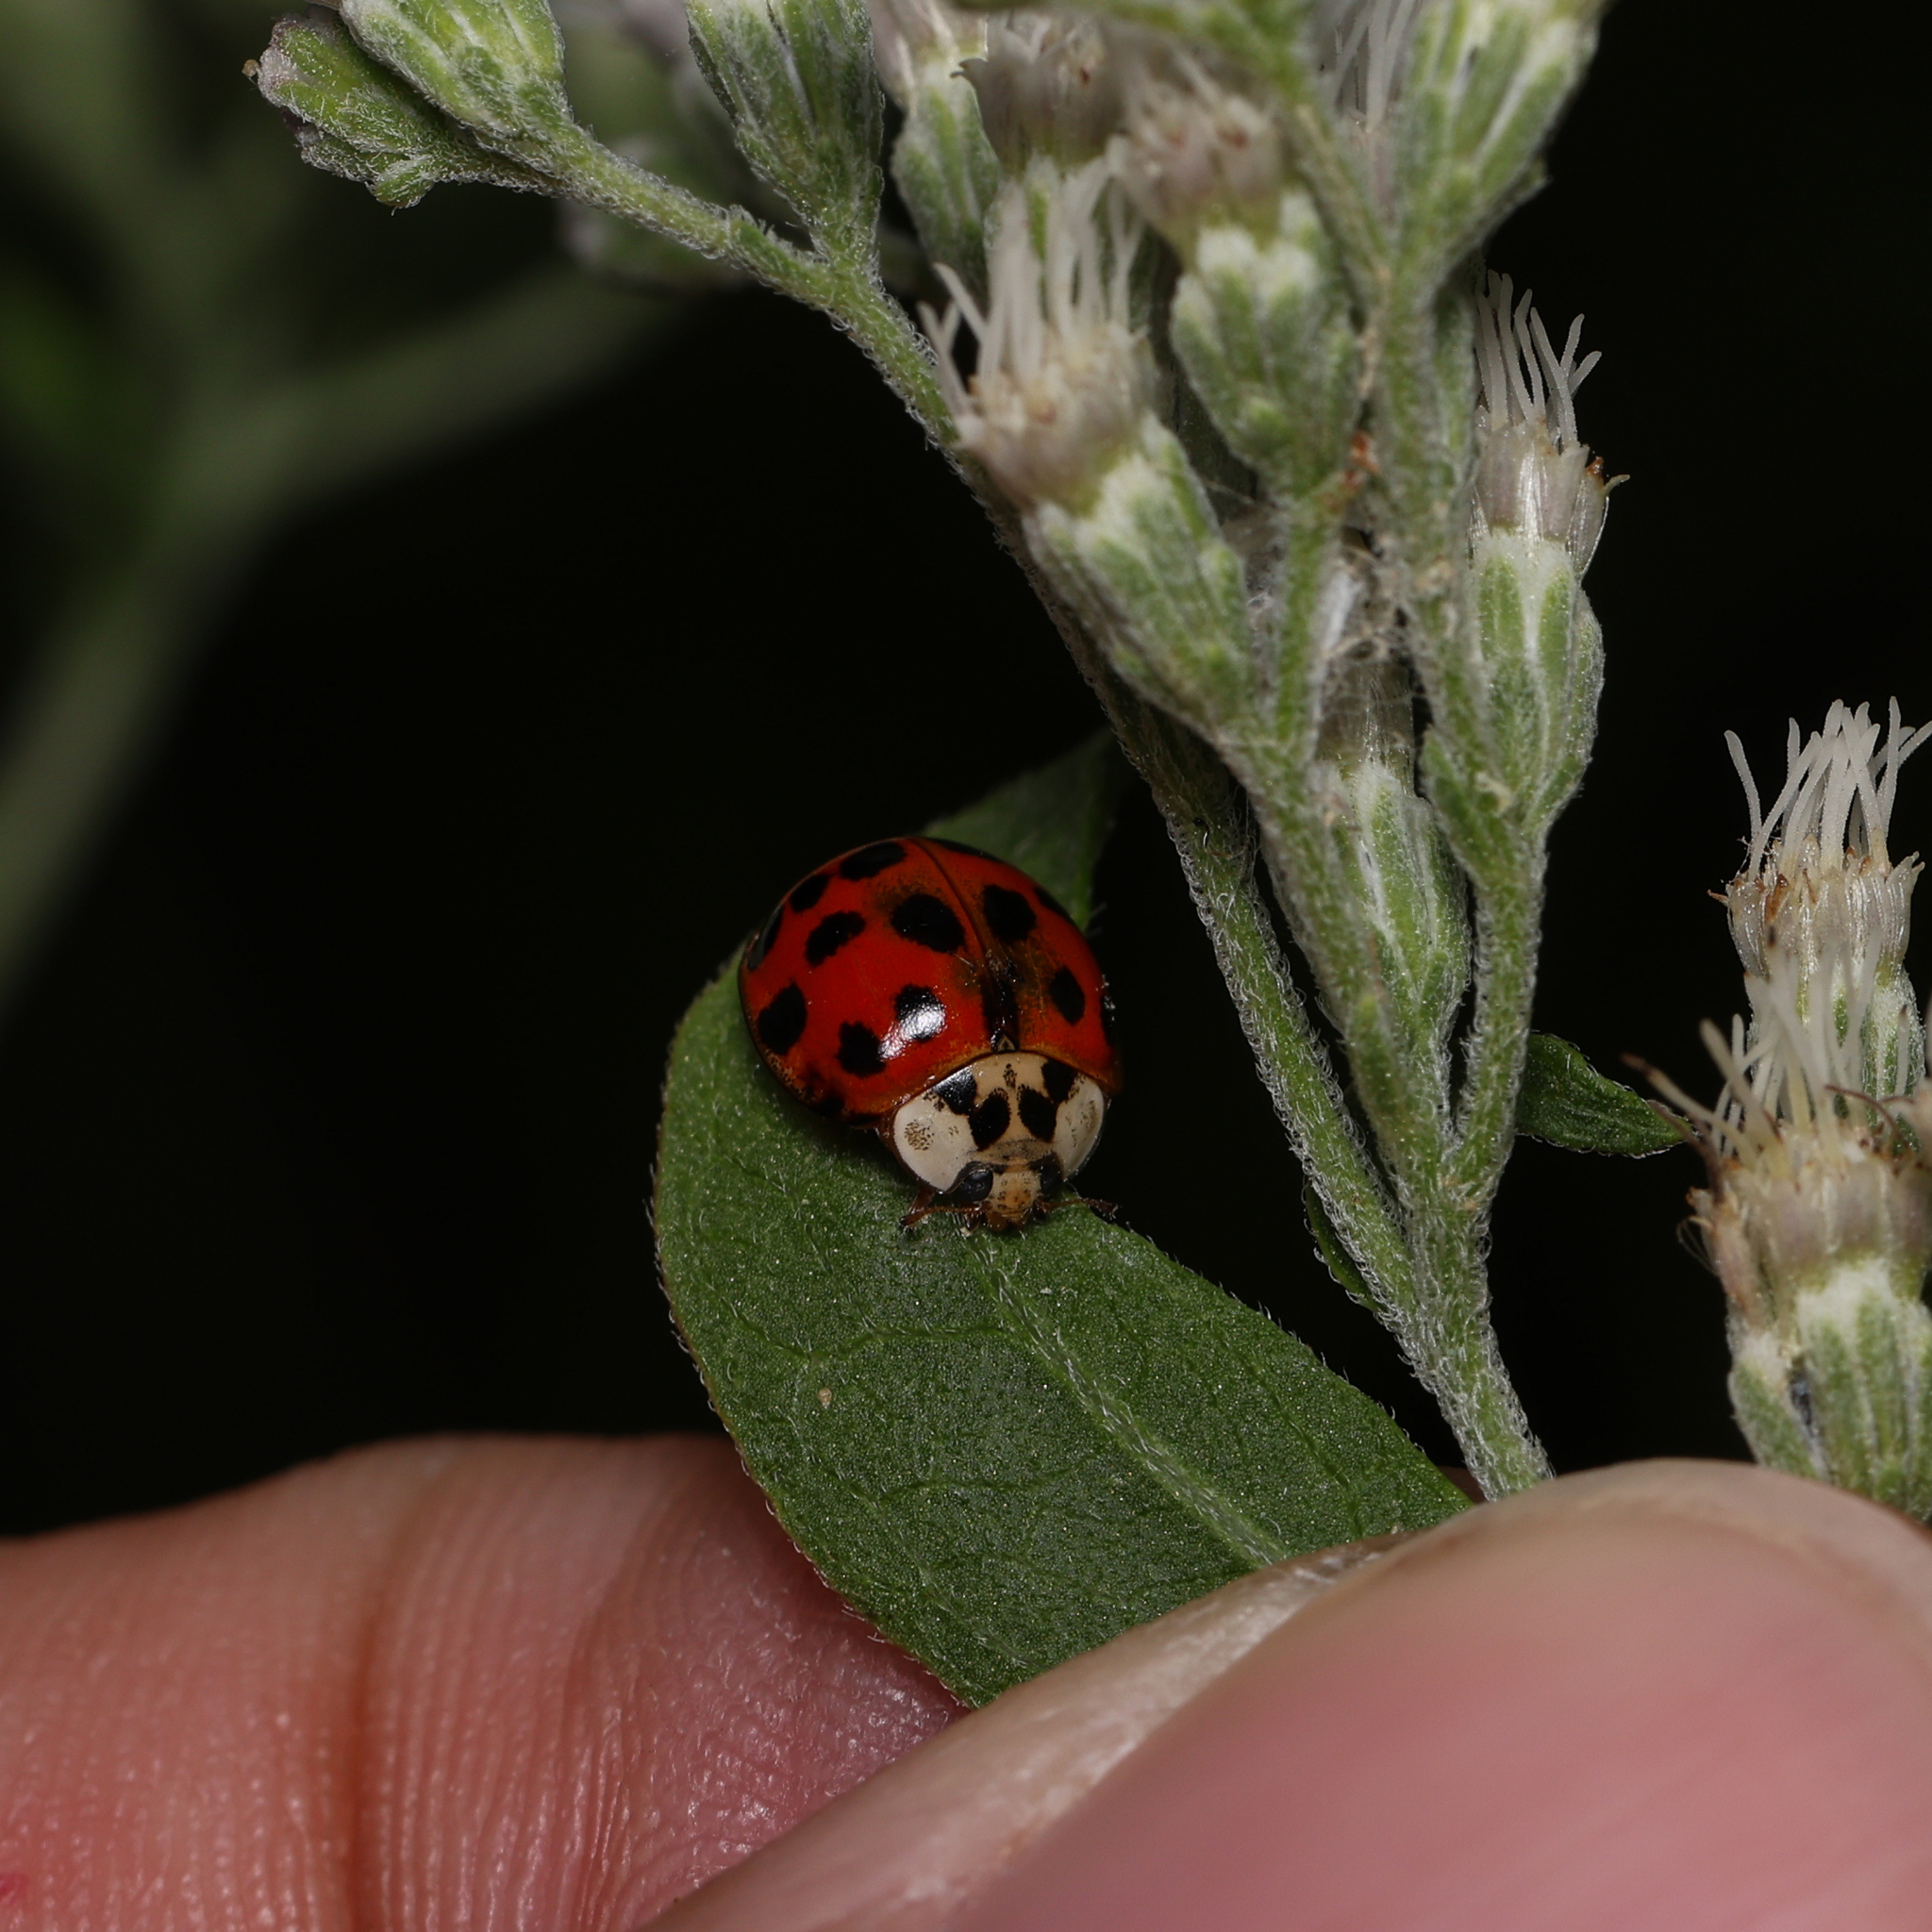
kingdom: Animalia
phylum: Arthropoda
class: Insecta
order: Coleoptera
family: Coccinellidae
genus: Harmonia
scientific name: Harmonia axyridis
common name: Harlequin ladybird
